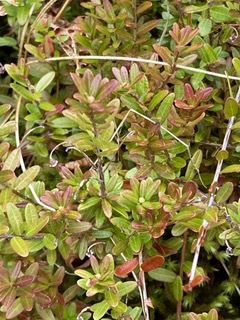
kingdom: Plantae
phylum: Tracheophyta
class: Magnoliopsida
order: Ericales
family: Ericaceae
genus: Vaccinium
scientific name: Vaccinium macrocarpon
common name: American cranberry
